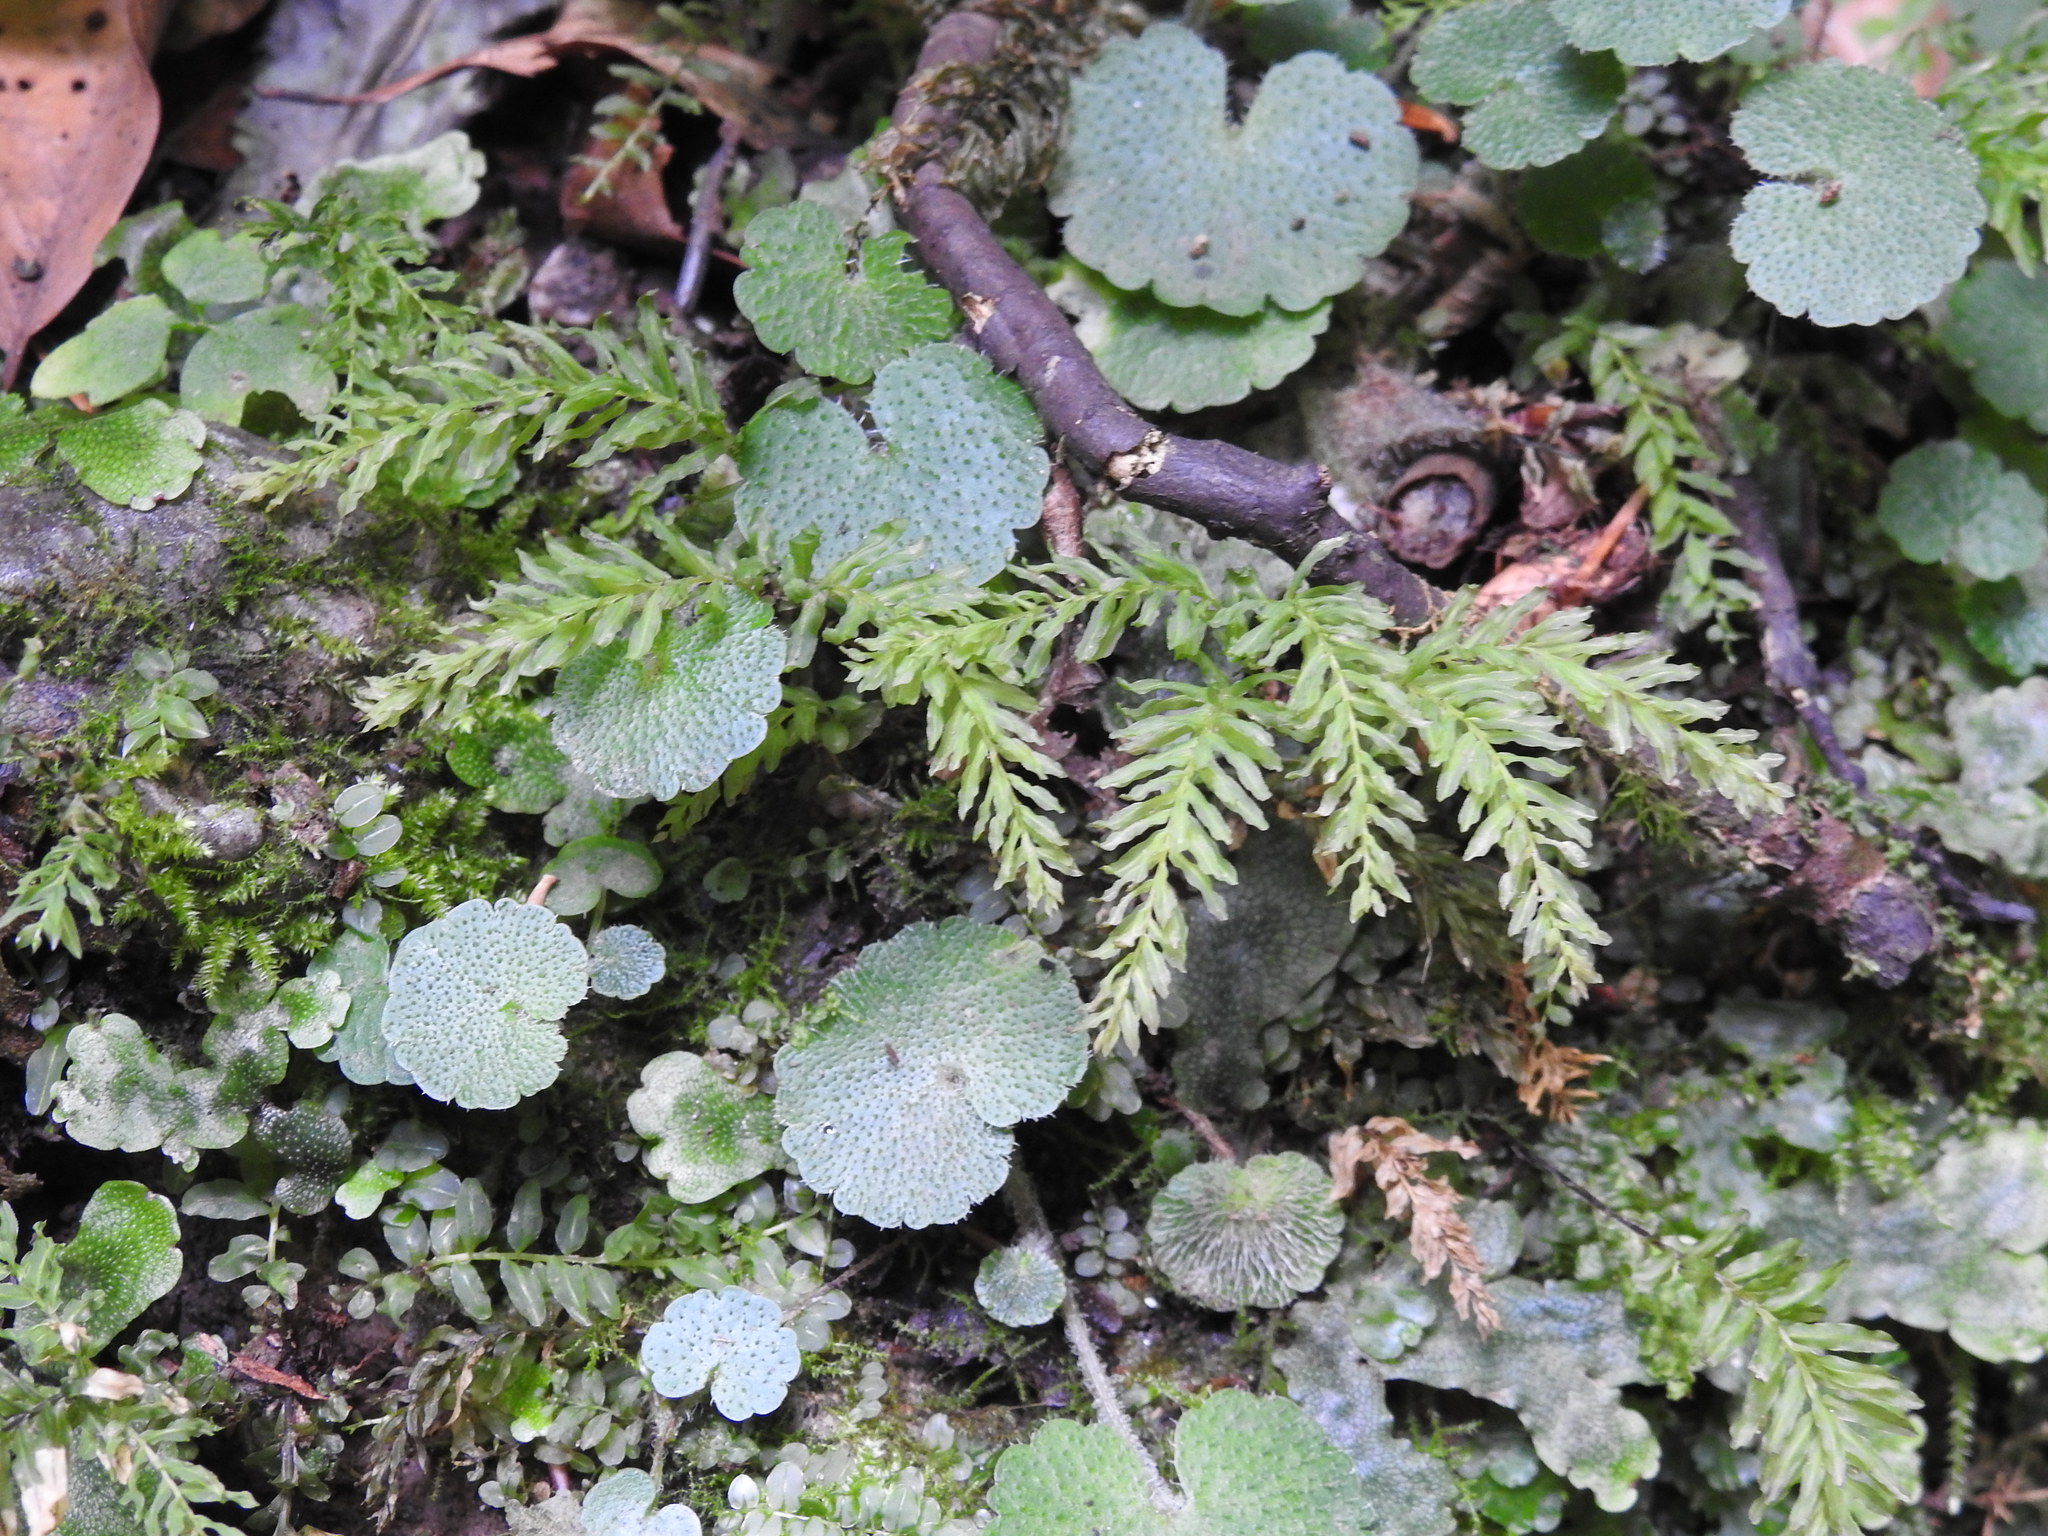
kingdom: Plantae
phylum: Bryophyta
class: Bryopsida
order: Bryales
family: Mniaceae
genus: Plagiomnium
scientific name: Plagiomnium undulatum
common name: Hart's-tongue thyme-moss
